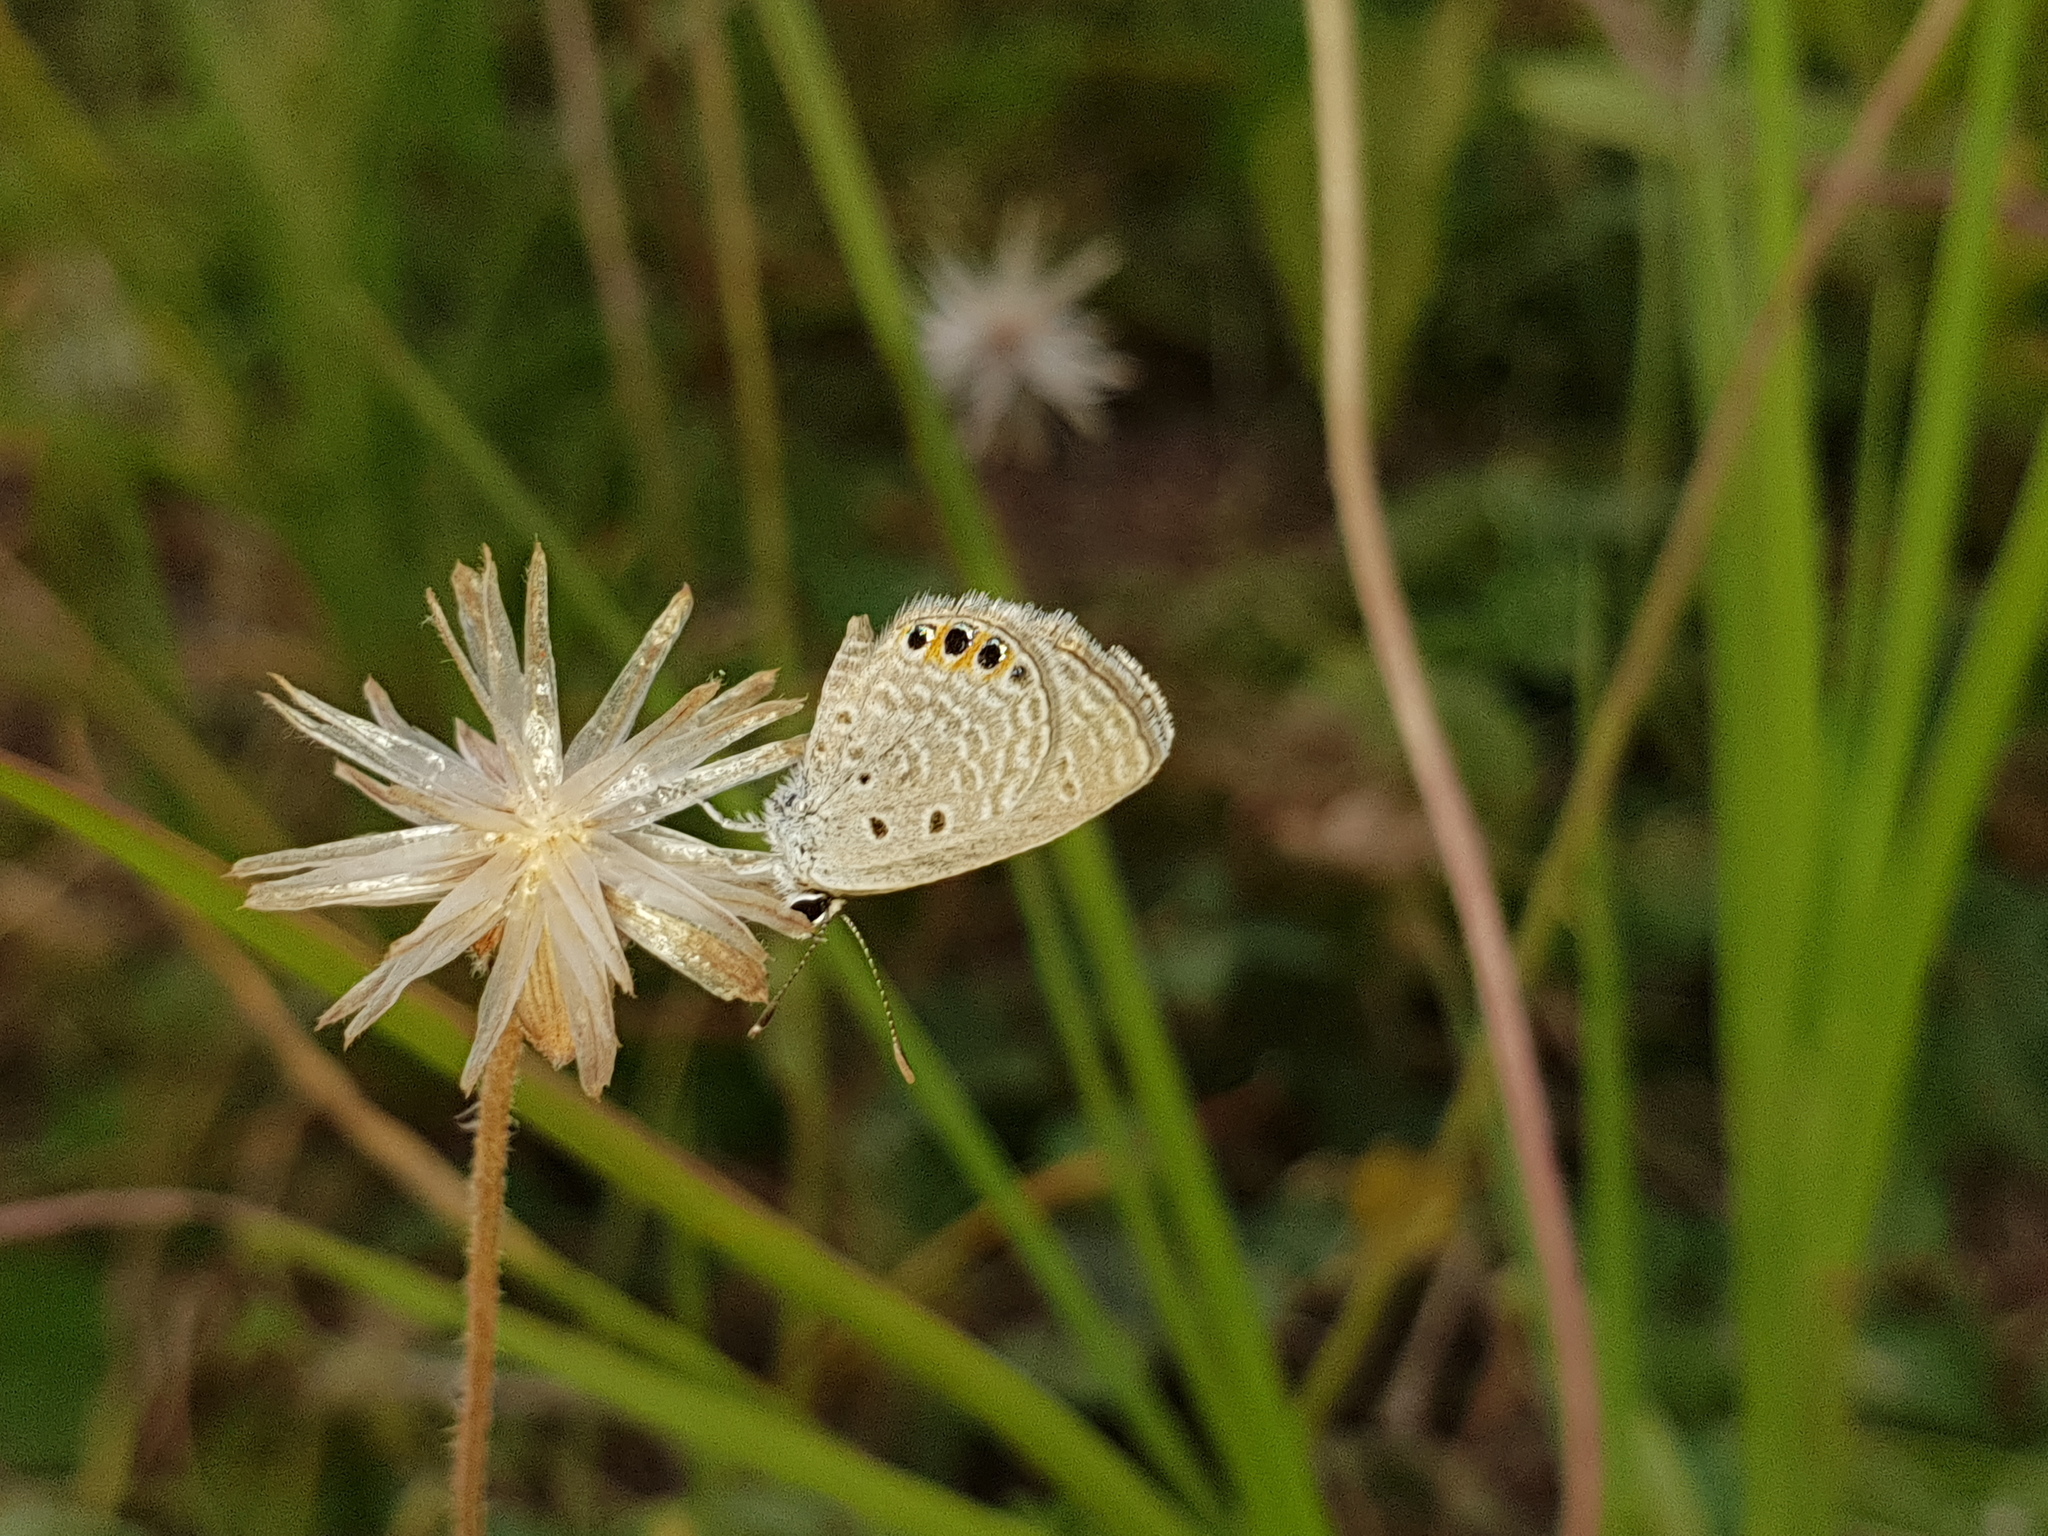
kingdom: Animalia
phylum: Arthropoda
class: Insecta
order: Lepidoptera
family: Lycaenidae
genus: Freyeria
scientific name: Freyeria putli
